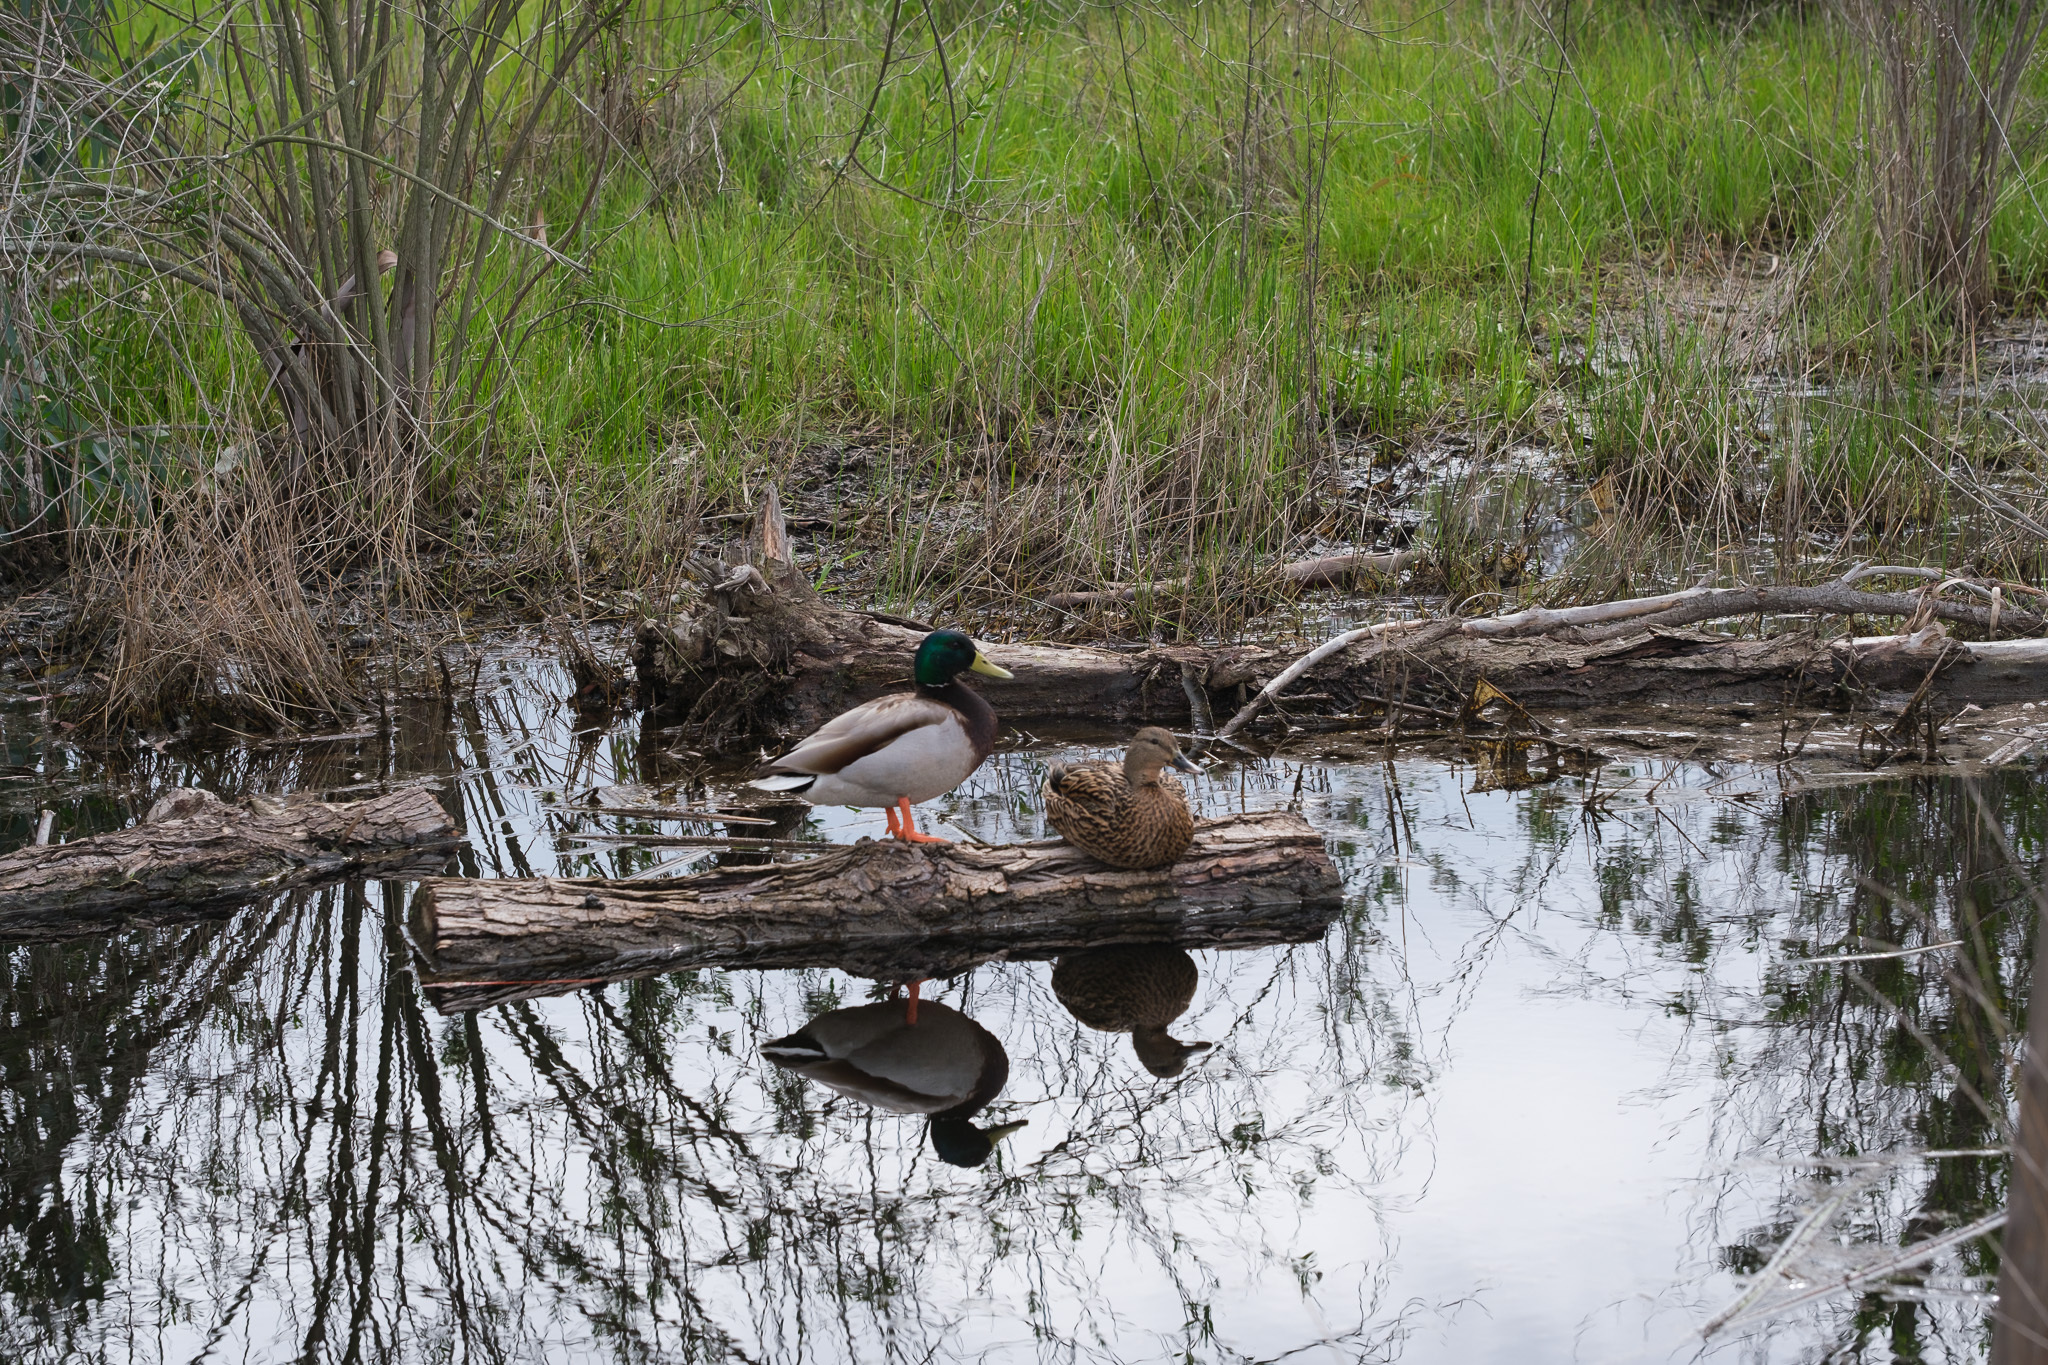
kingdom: Animalia
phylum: Chordata
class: Aves
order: Anseriformes
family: Anatidae
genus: Anas
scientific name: Anas platyrhynchos
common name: Mallard
